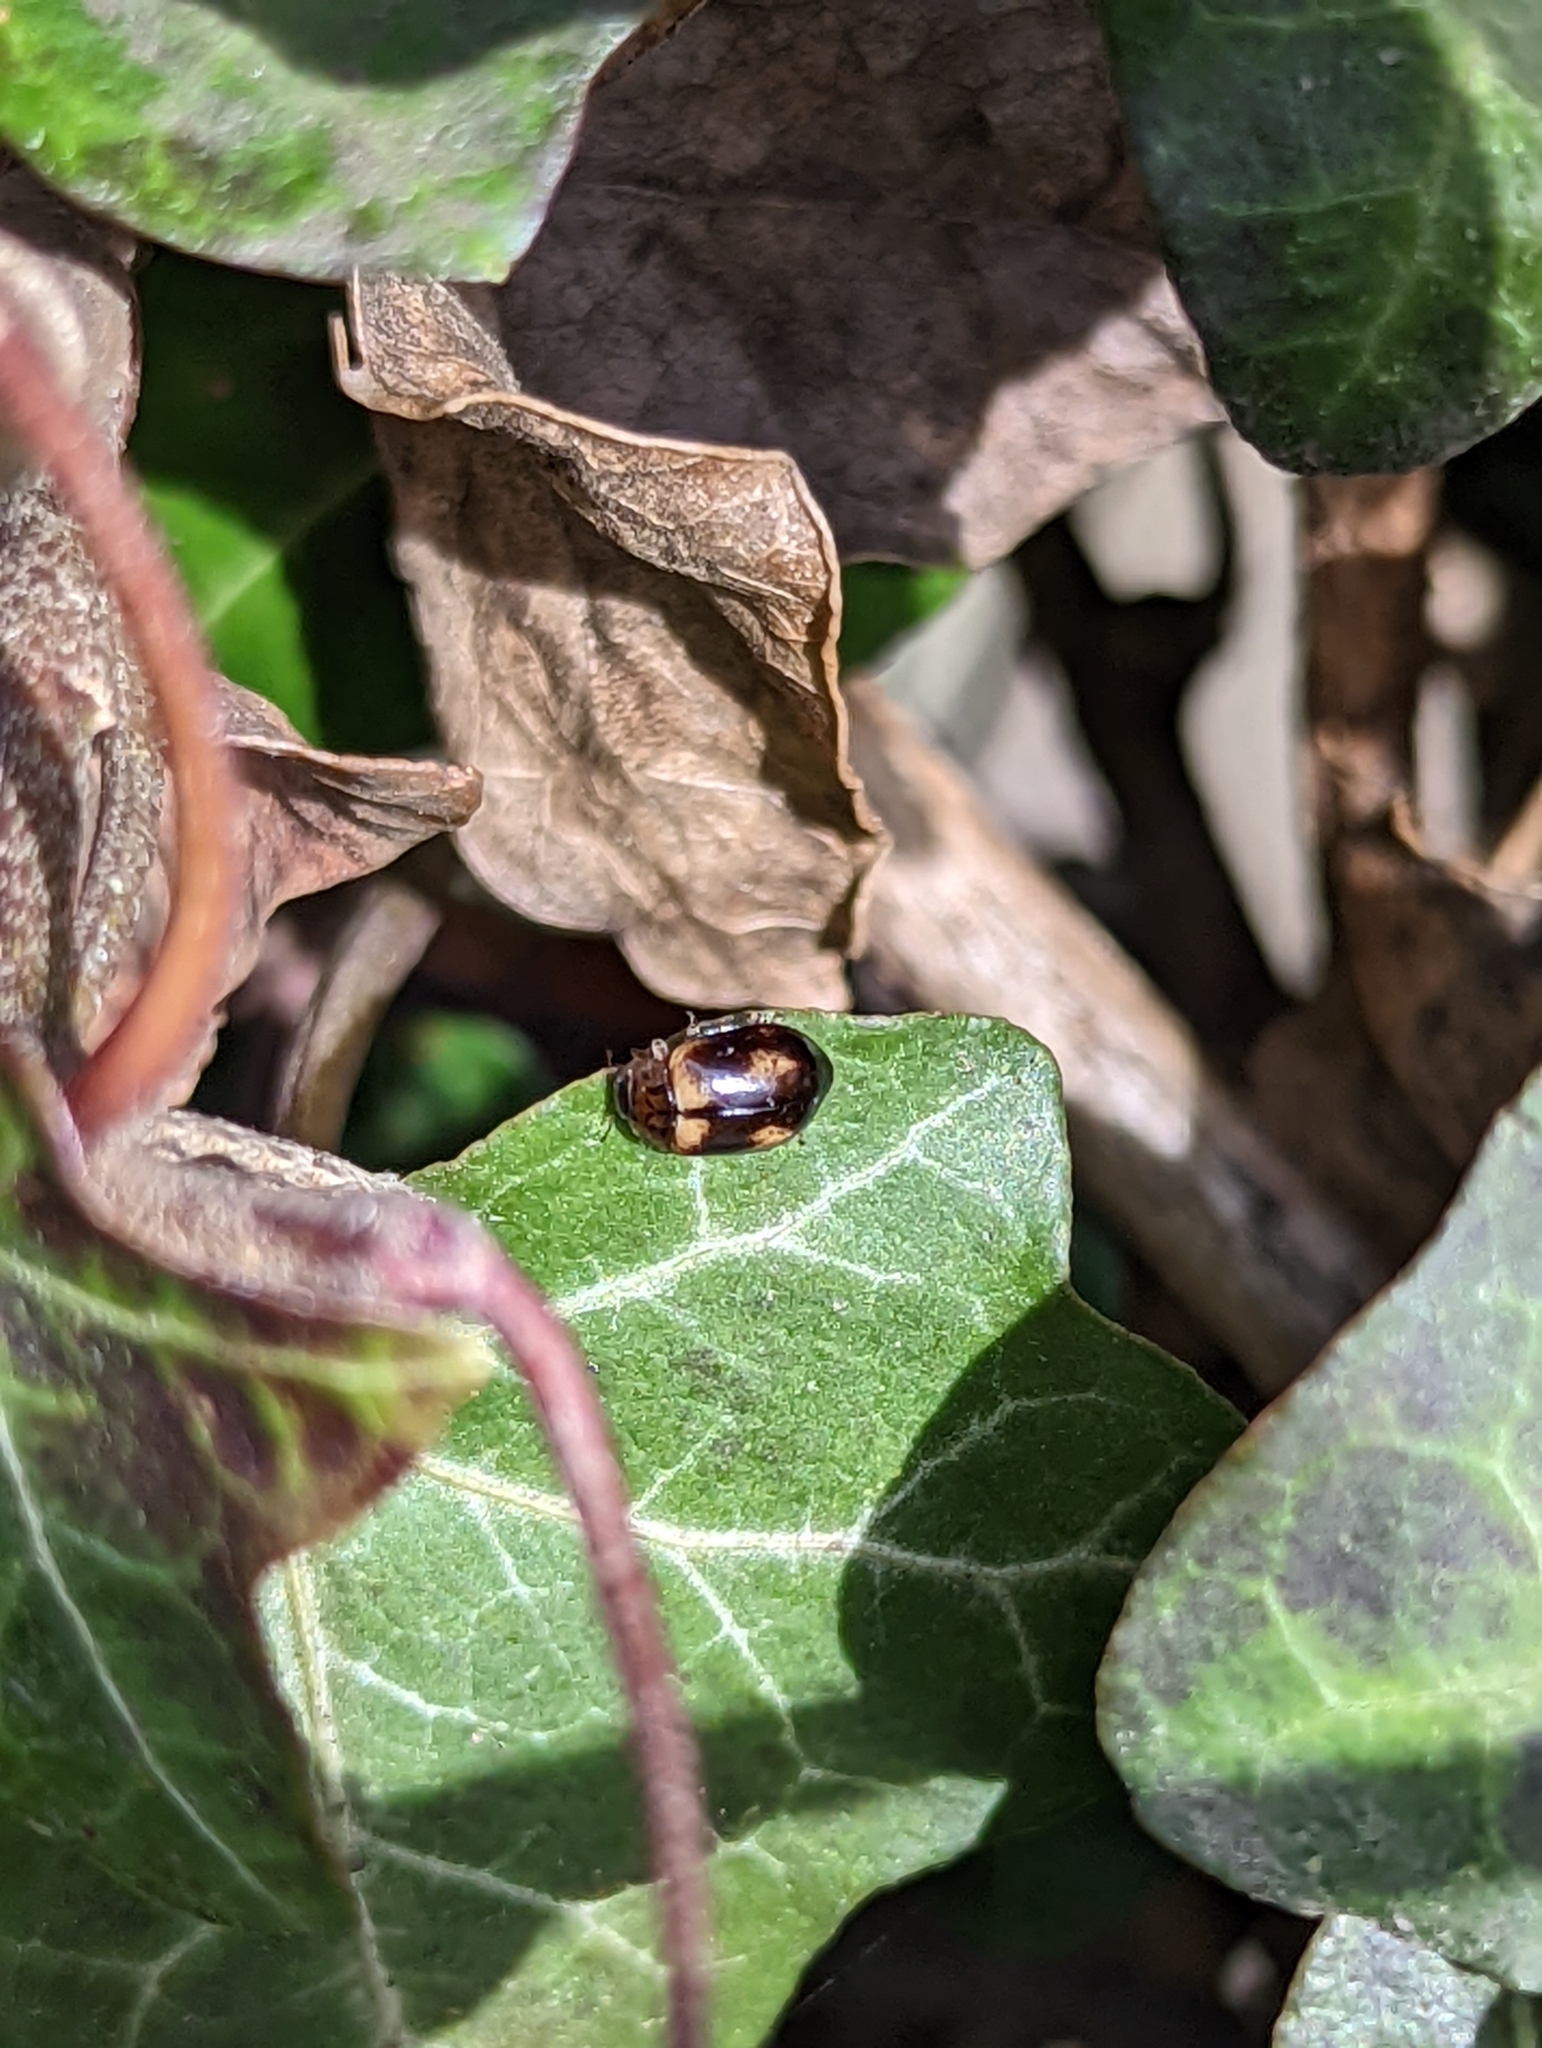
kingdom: Animalia
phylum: Arthropoda
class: Insecta
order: Coleoptera
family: Coccinellidae
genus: Aphidecta
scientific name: Aphidecta obliterata
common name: Larch ladybird
